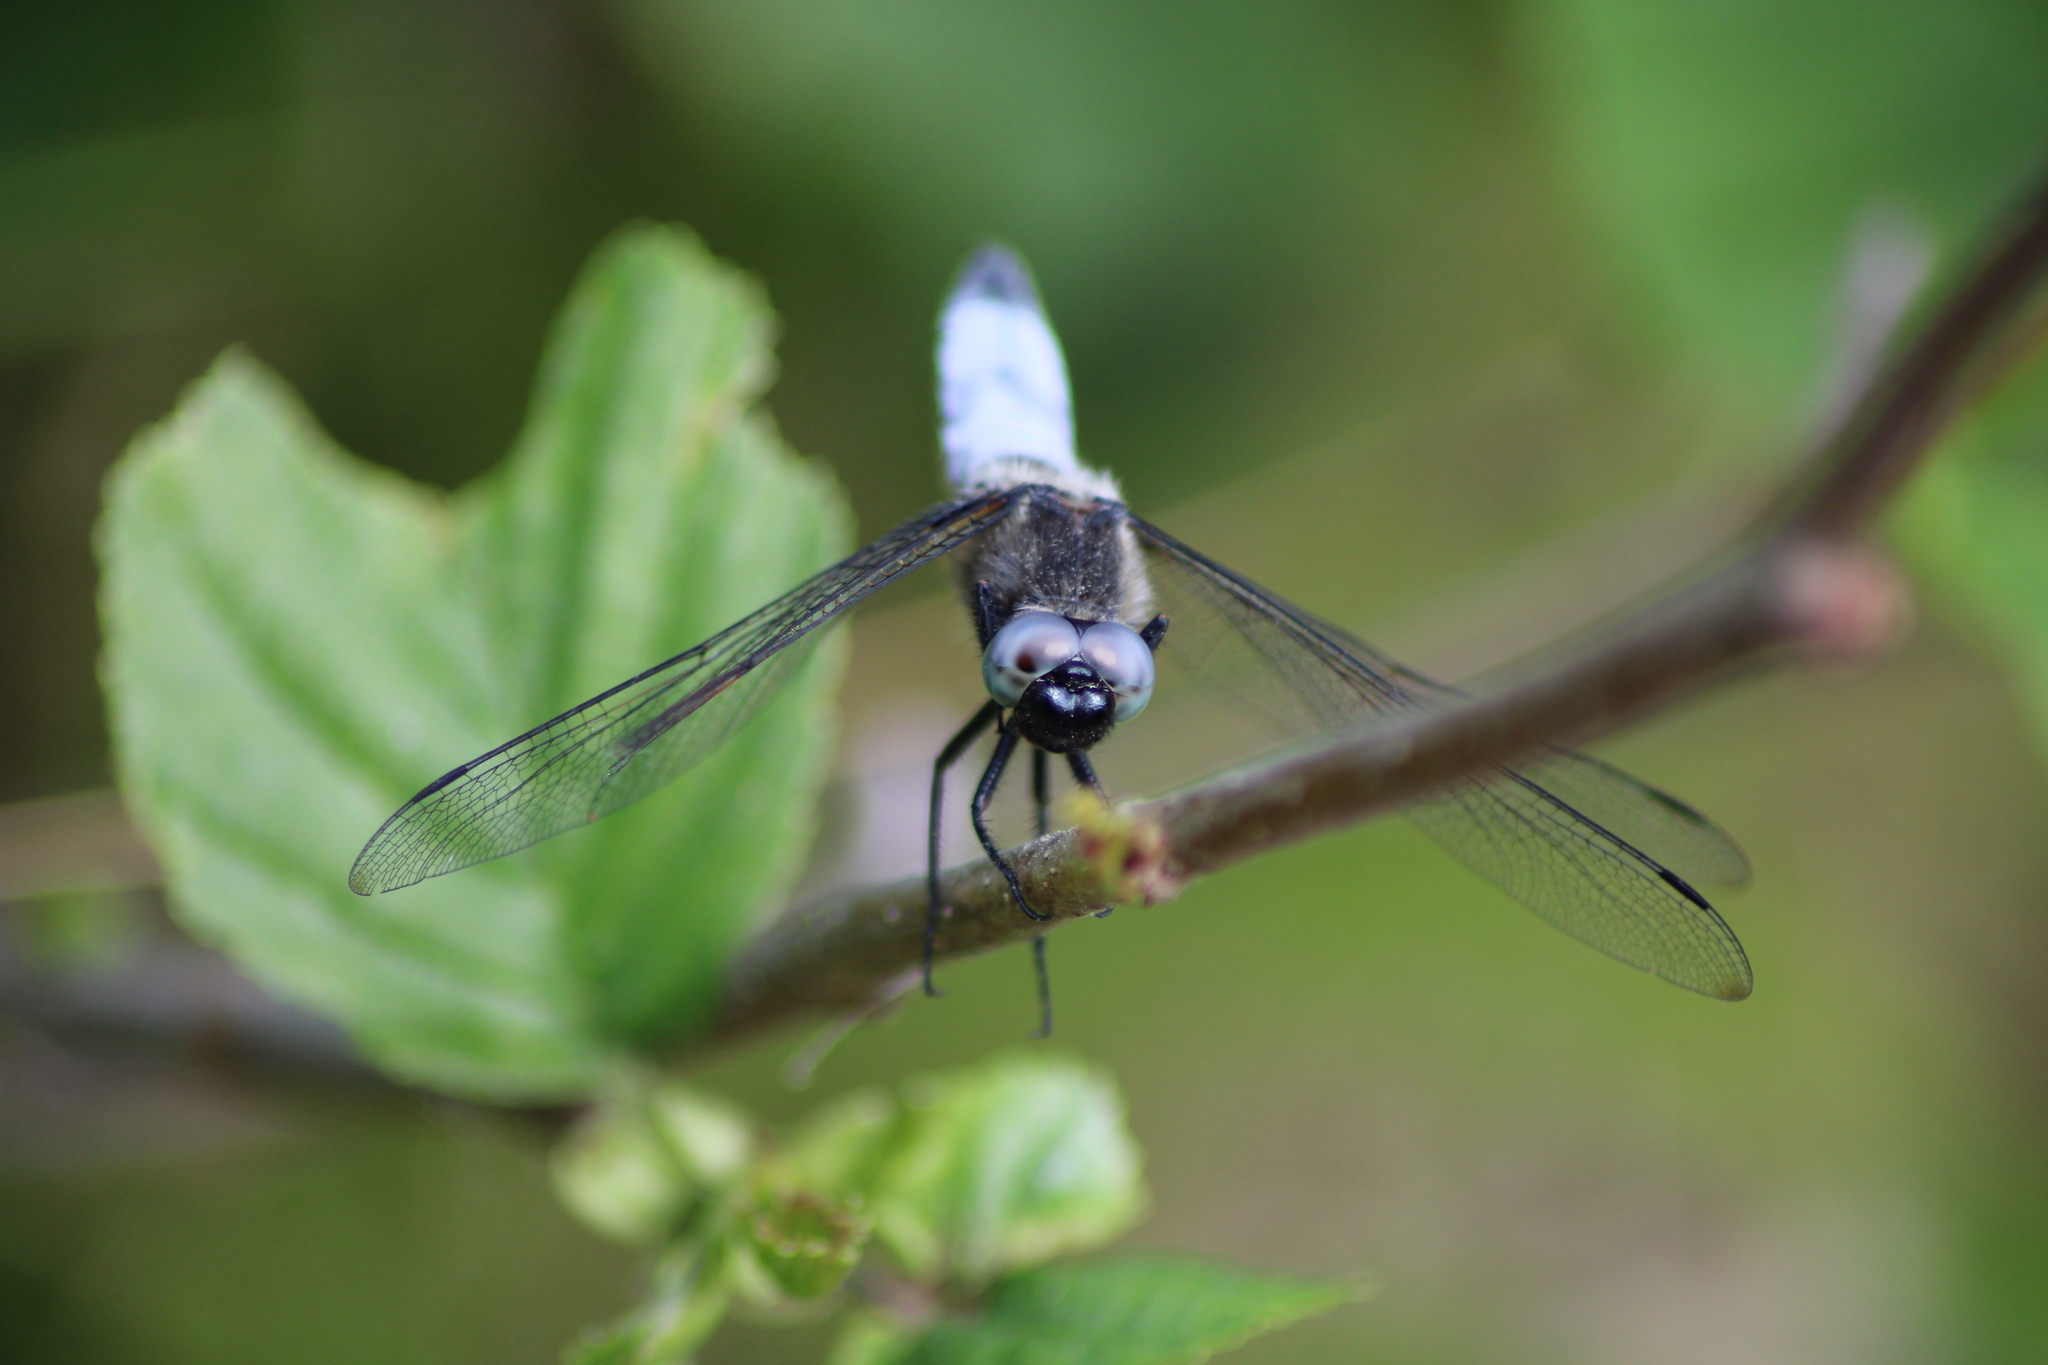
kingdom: Animalia
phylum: Arthropoda
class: Insecta
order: Odonata
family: Libellulidae
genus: Libellula
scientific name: Libellula fulva
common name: Blue chaser
